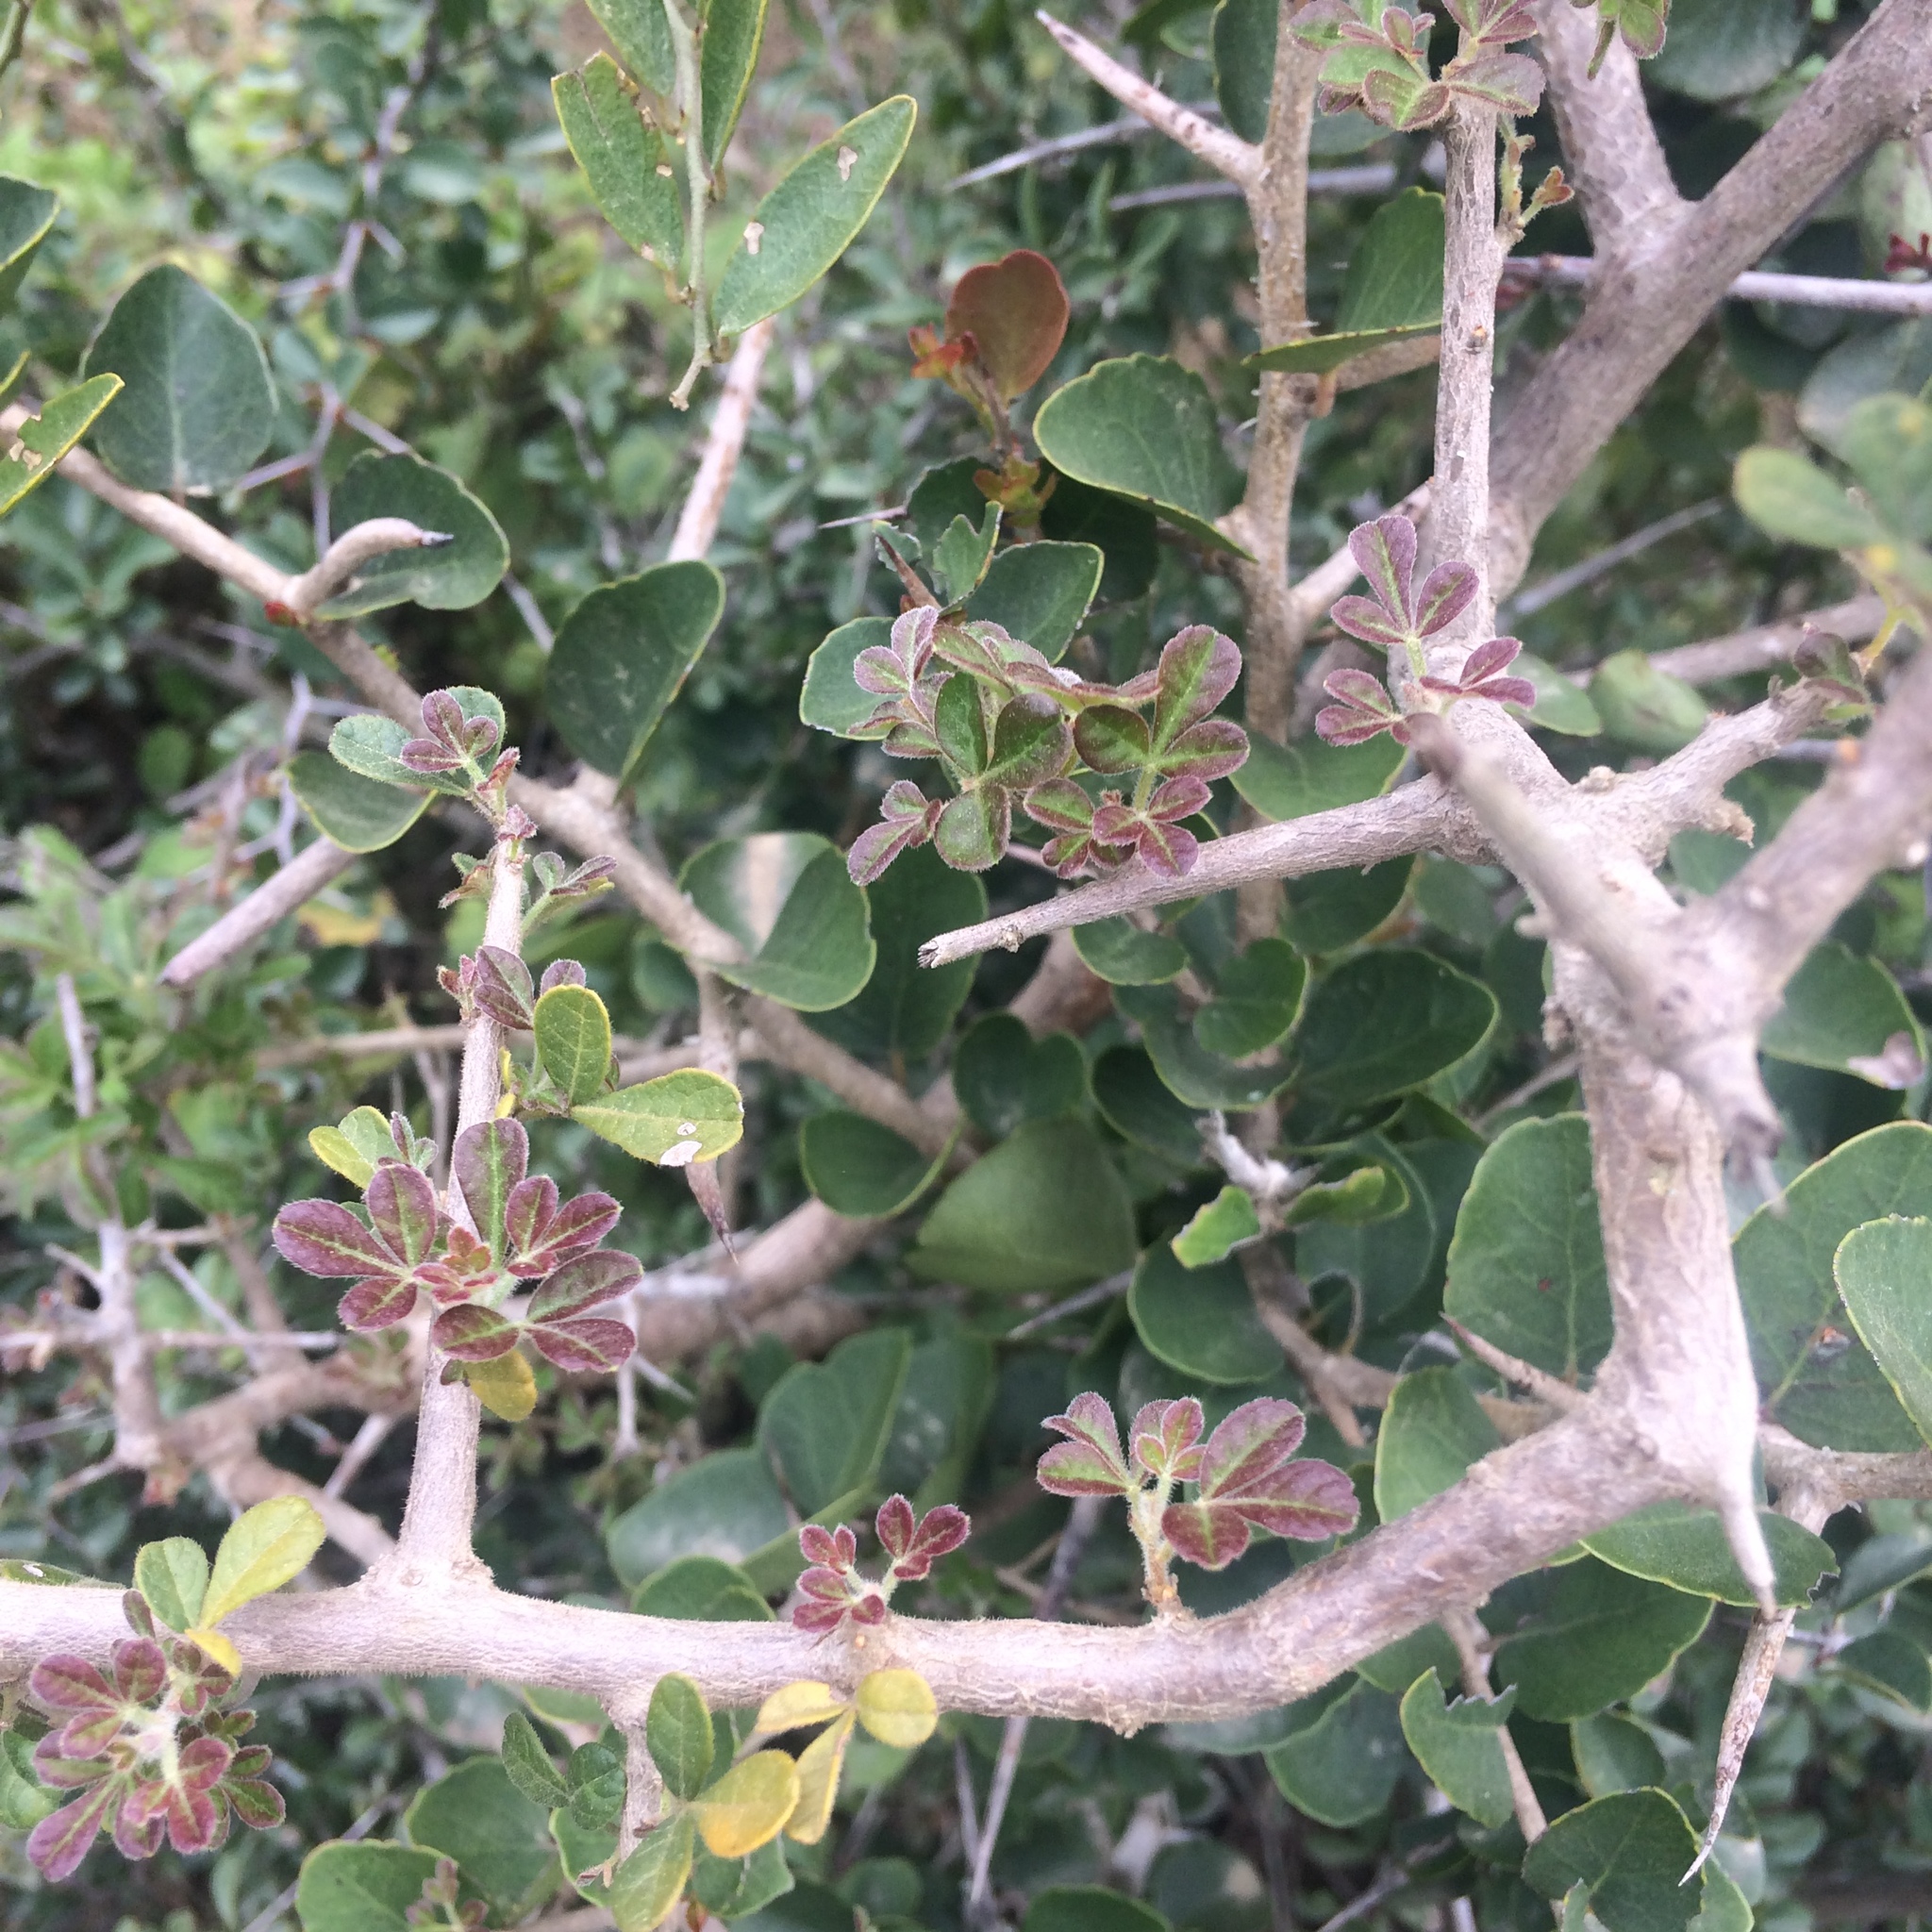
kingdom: Plantae
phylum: Tracheophyta
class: Magnoliopsida
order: Sapindales
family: Anacardiaceae
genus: Searsia
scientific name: Searsia refracta
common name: Thorny crow-berry
